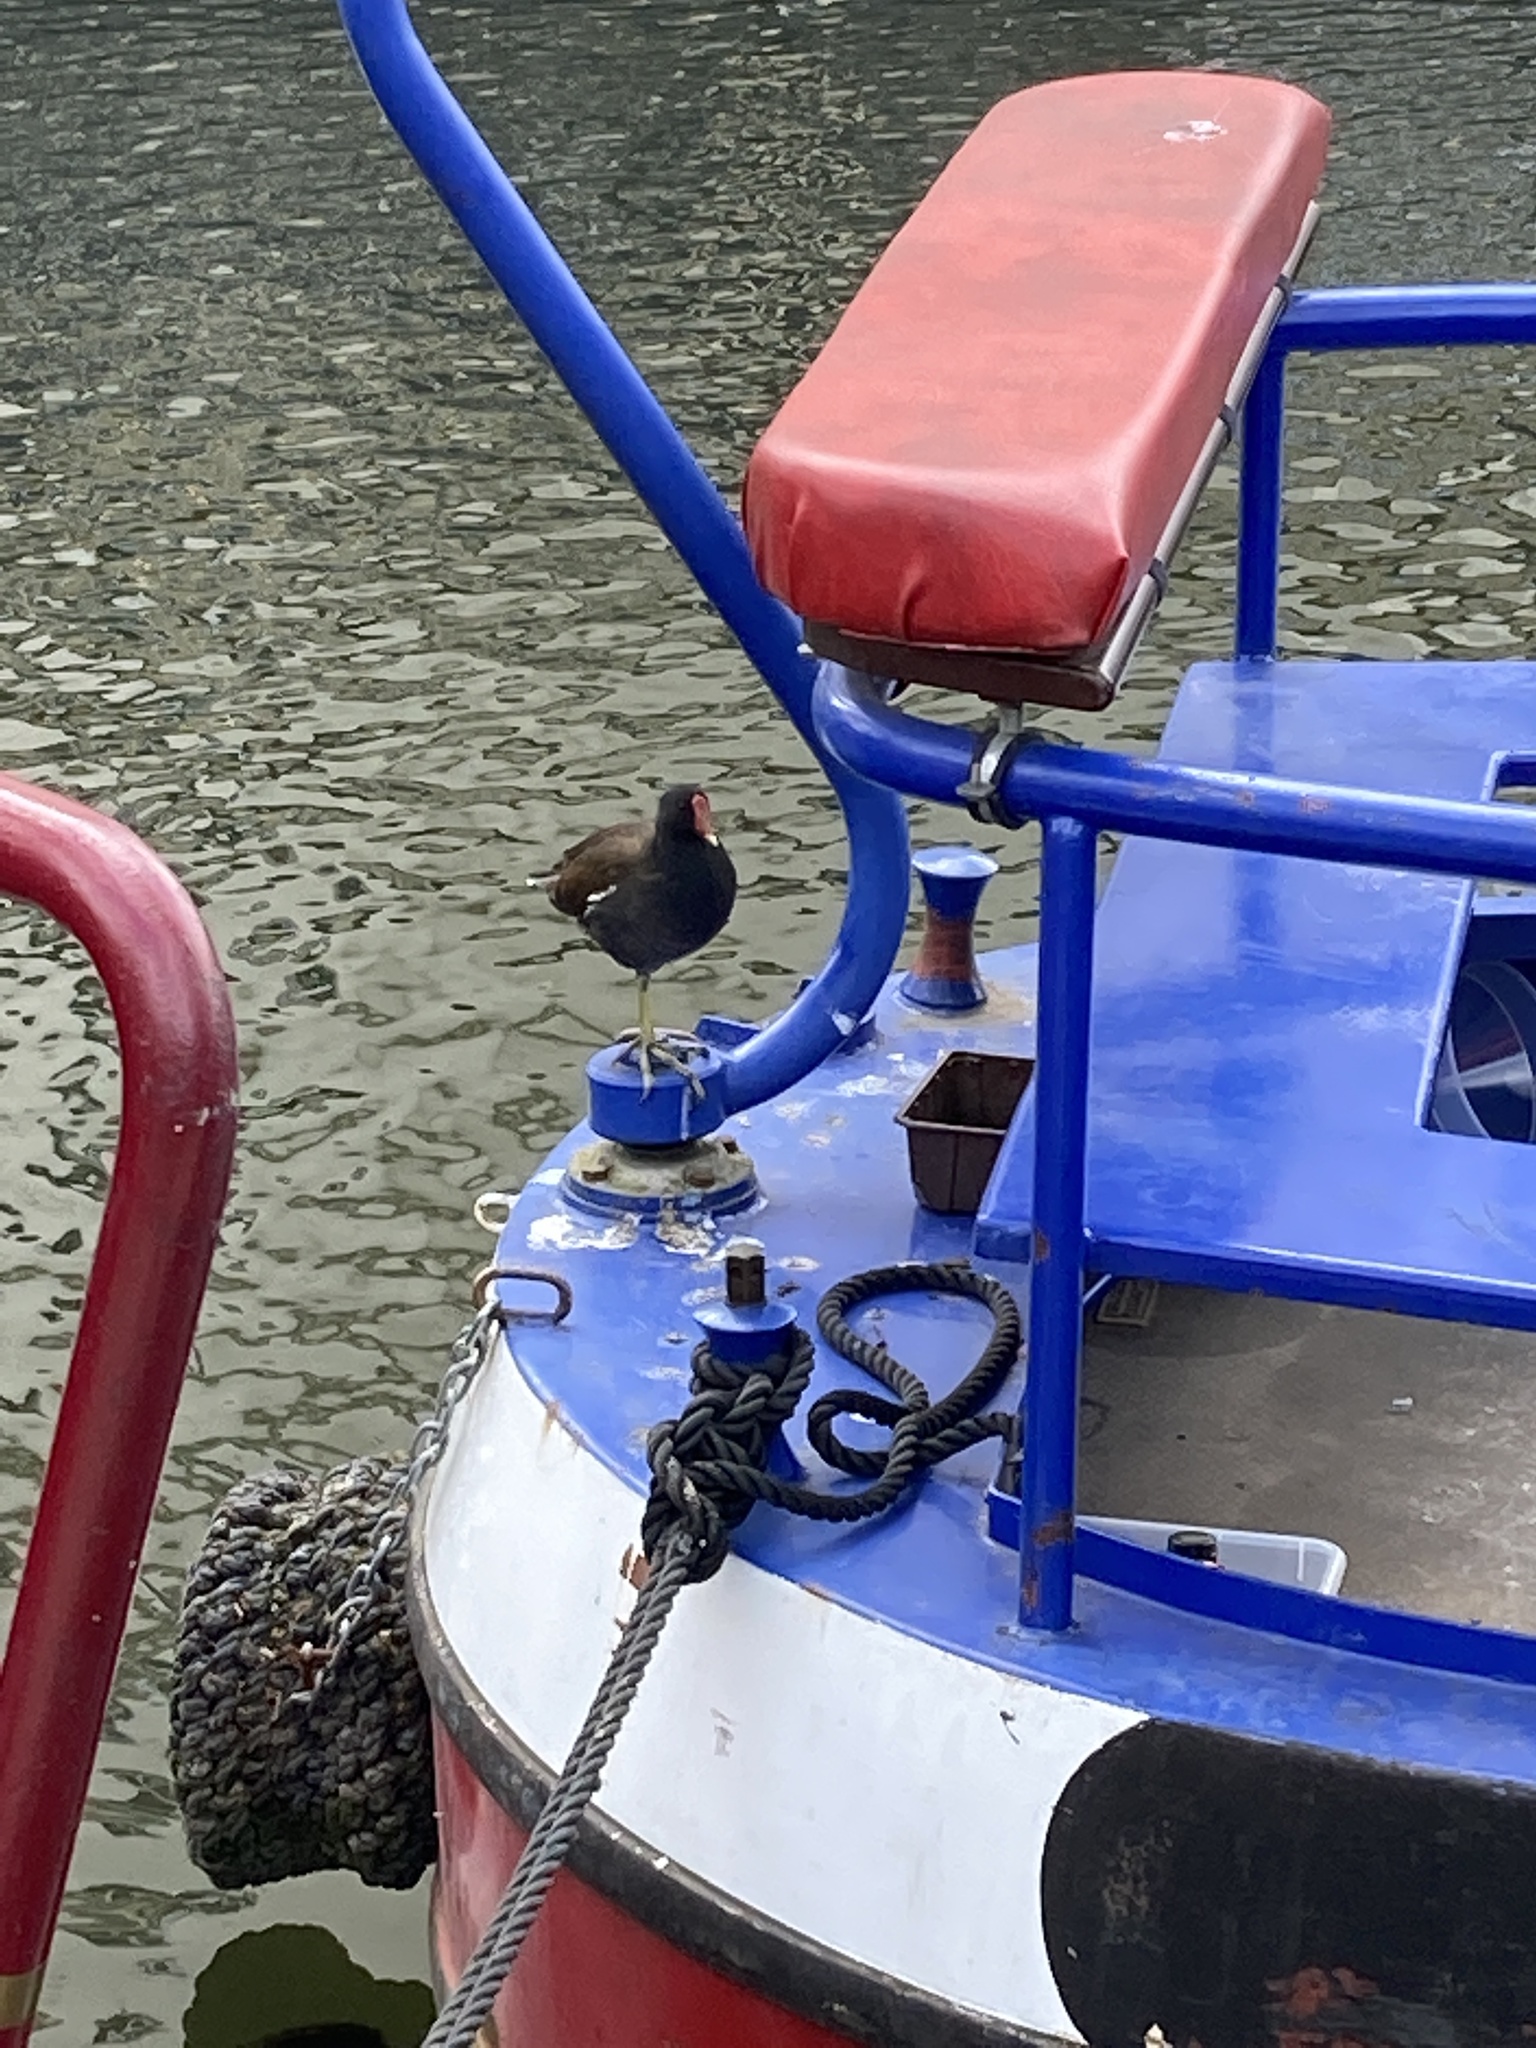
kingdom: Animalia
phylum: Chordata
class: Aves
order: Gruiformes
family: Rallidae
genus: Gallinula
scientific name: Gallinula chloropus
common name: Common moorhen
